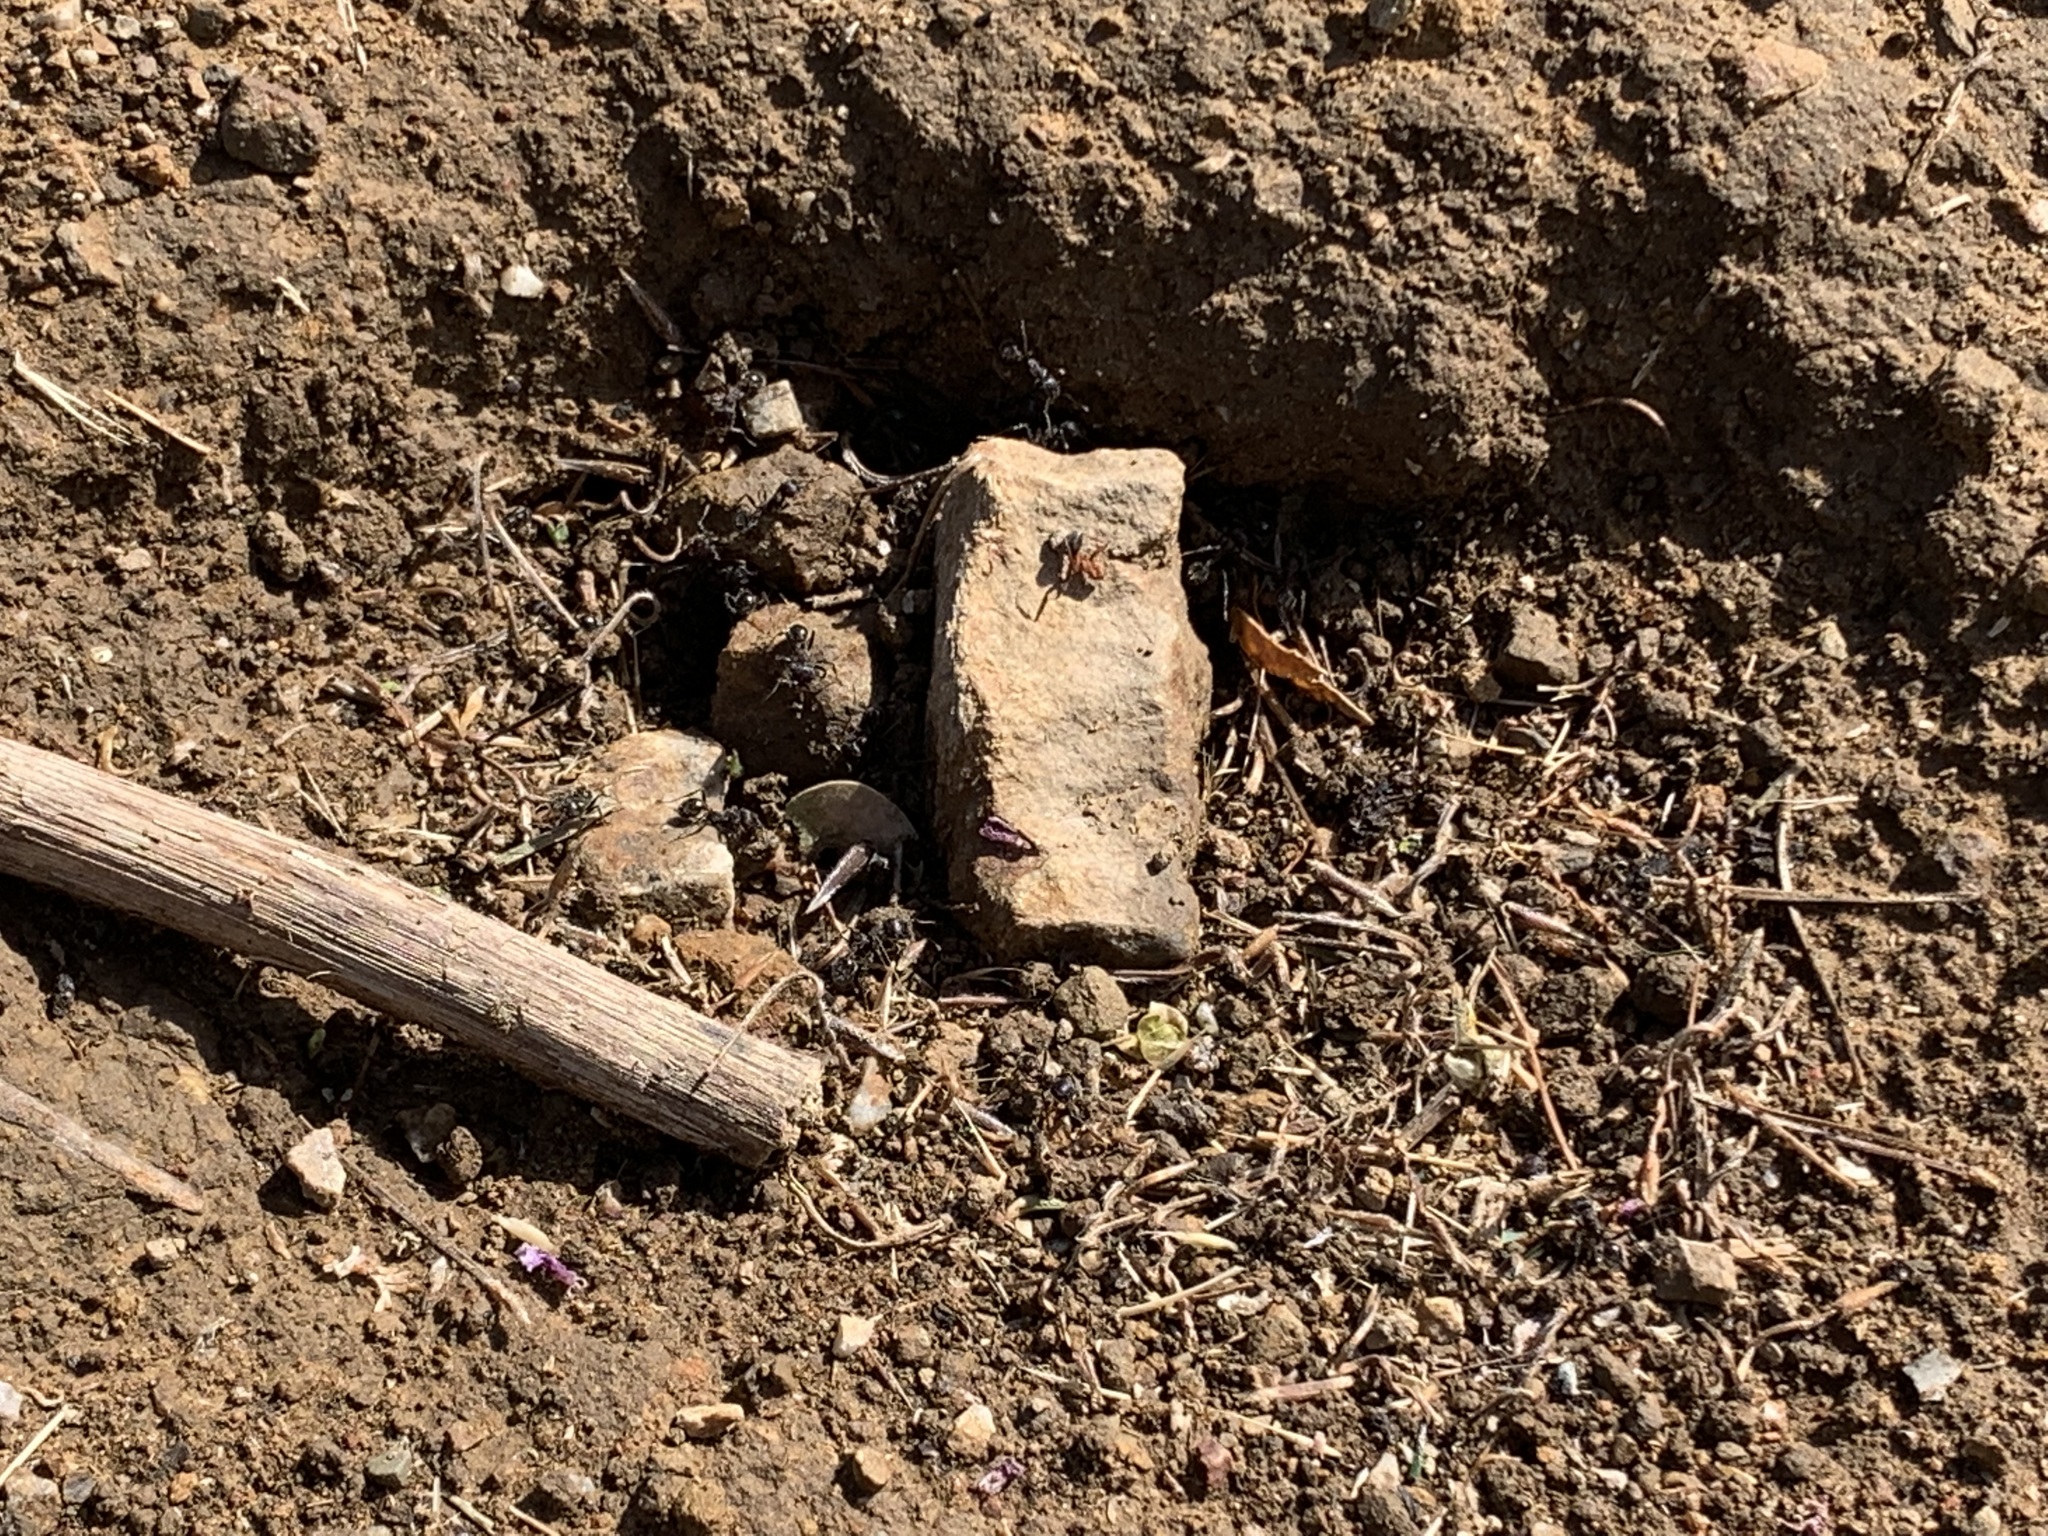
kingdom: Animalia
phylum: Arthropoda
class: Insecta
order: Hymenoptera
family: Formicidae
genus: Veromessor
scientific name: Veromessor andrei
